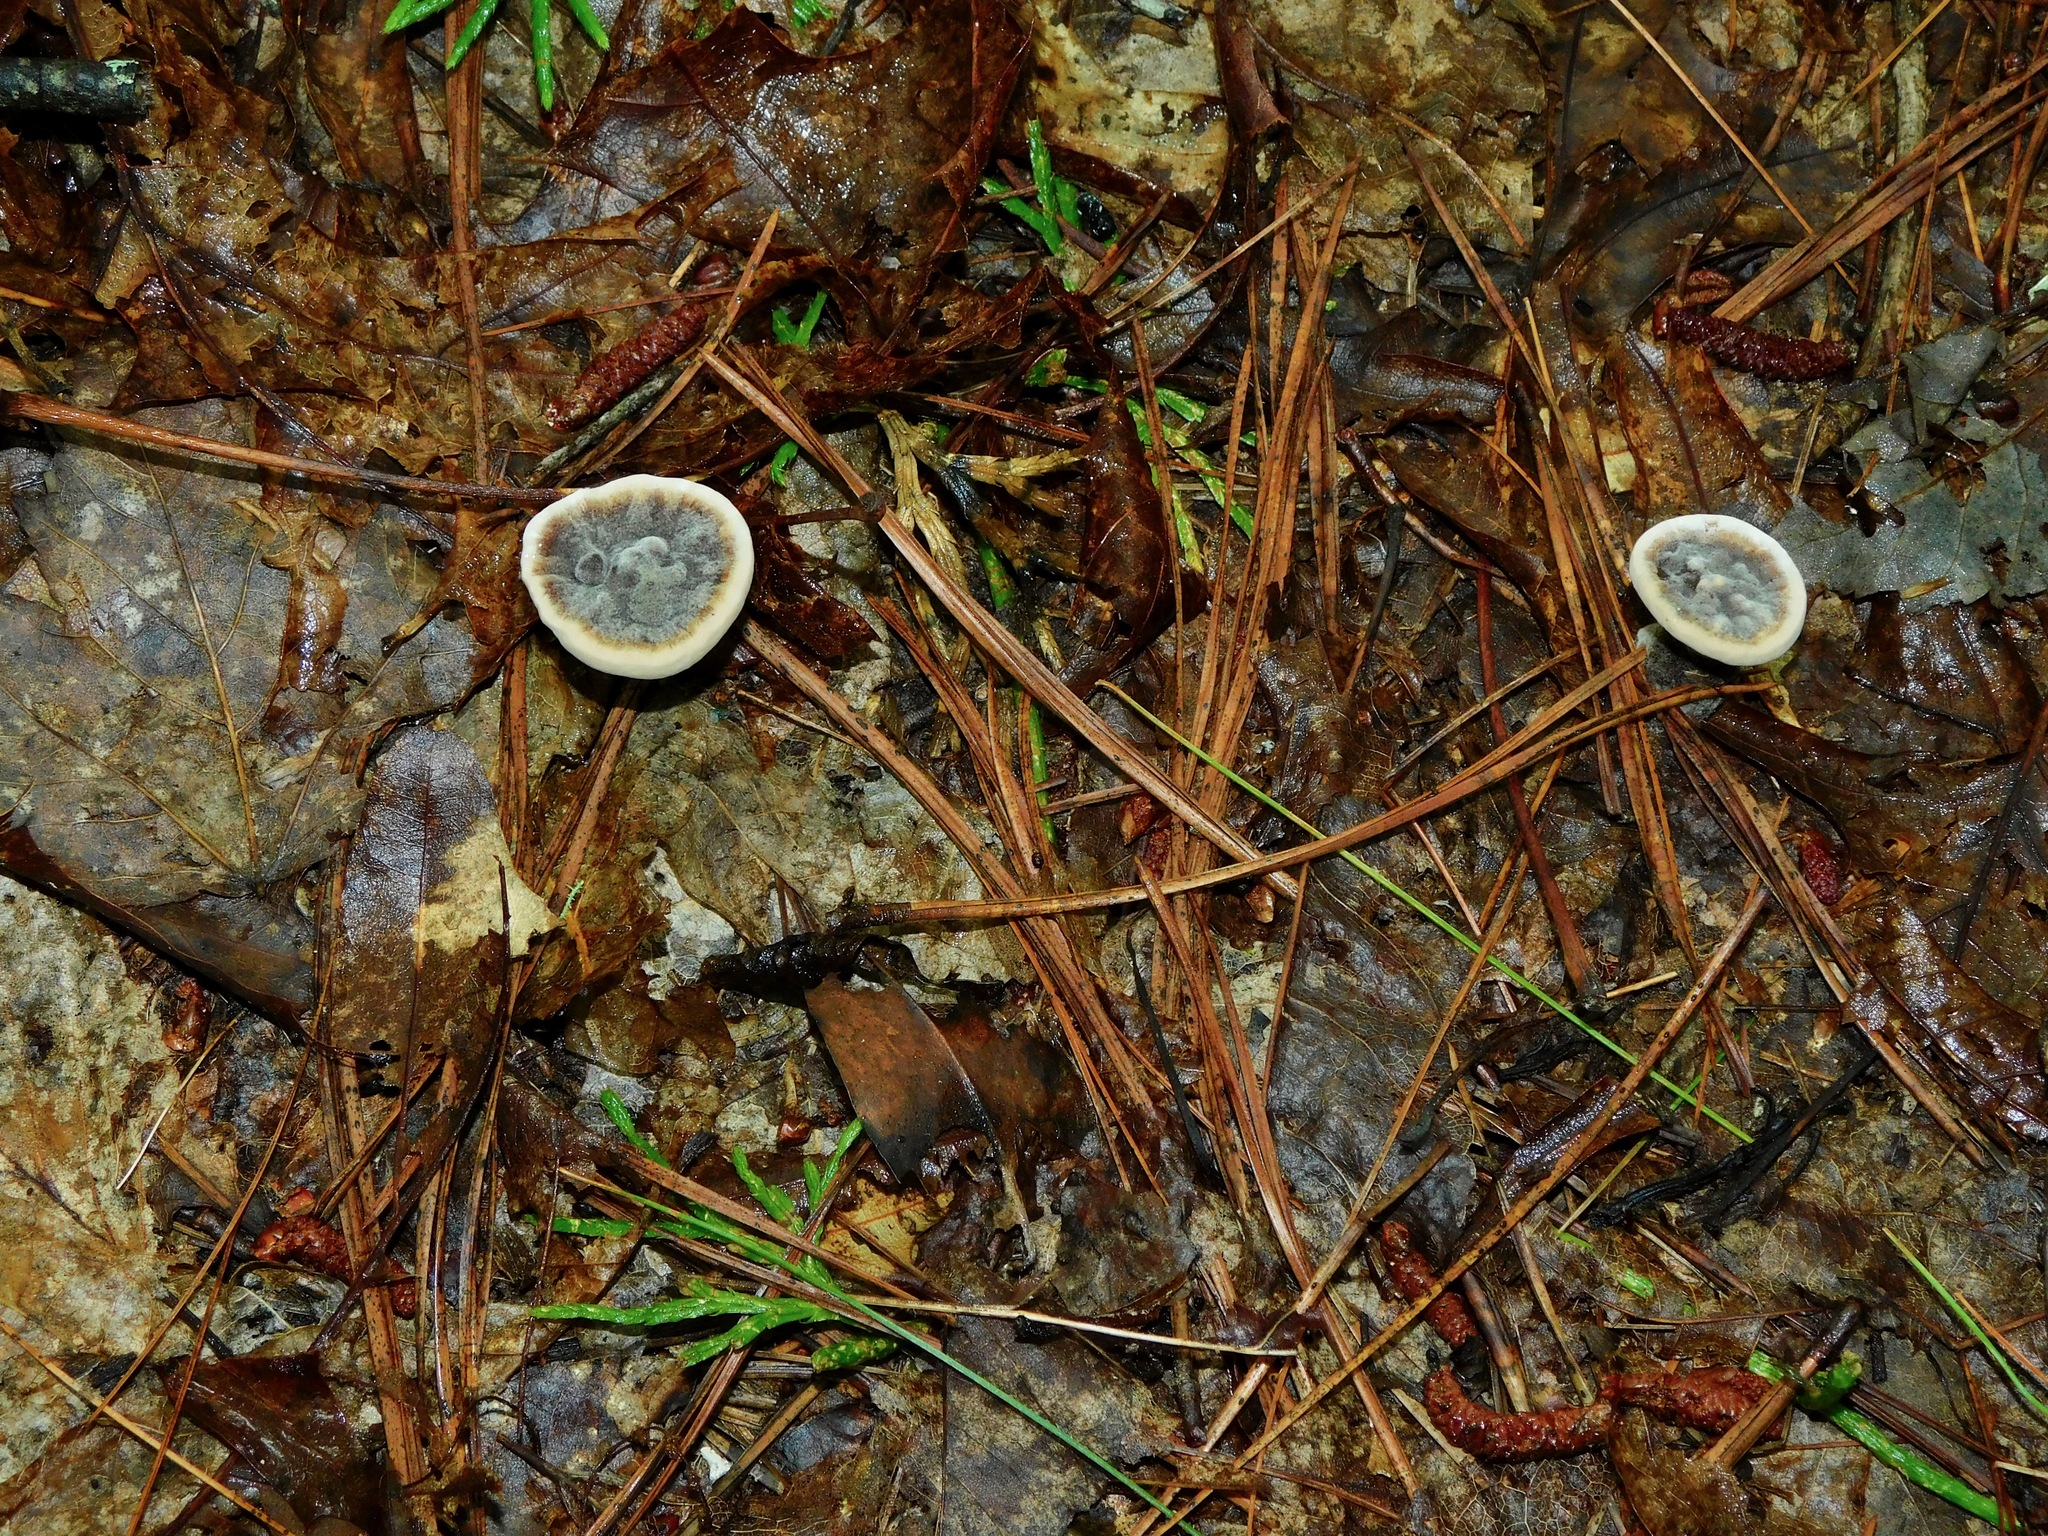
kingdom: Fungi
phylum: Basidiomycota
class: Agaricomycetes
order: Thelephorales
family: Thelephoraceae
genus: Phellodon
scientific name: Phellodon niger
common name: Black tooth
